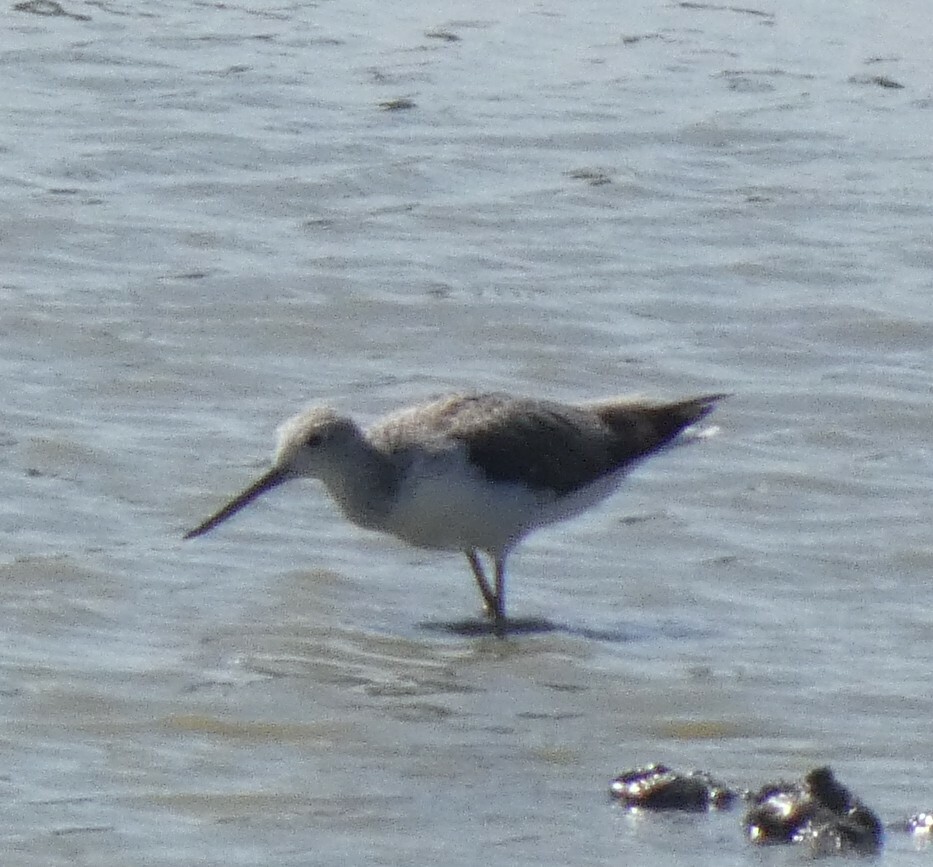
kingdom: Animalia
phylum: Chordata
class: Aves
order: Charadriiformes
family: Scolopacidae
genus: Tringa
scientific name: Tringa nebularia
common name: Common greenshank
